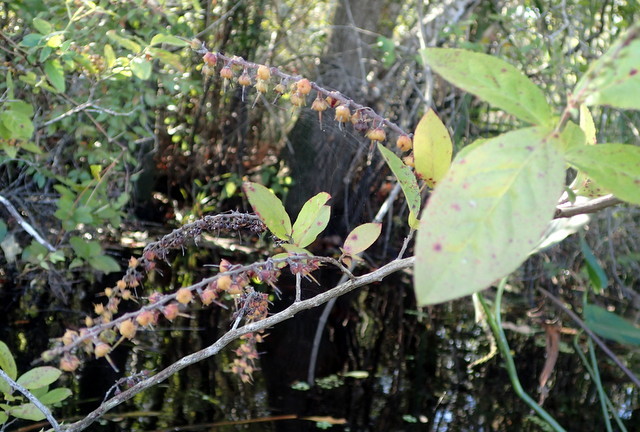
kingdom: Plantae
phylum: Tracheophyta
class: Magnoliopsida
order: Ericales
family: Ericaceae
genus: Eubotrys
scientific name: Eubotrys racemosa
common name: Fetterbush
